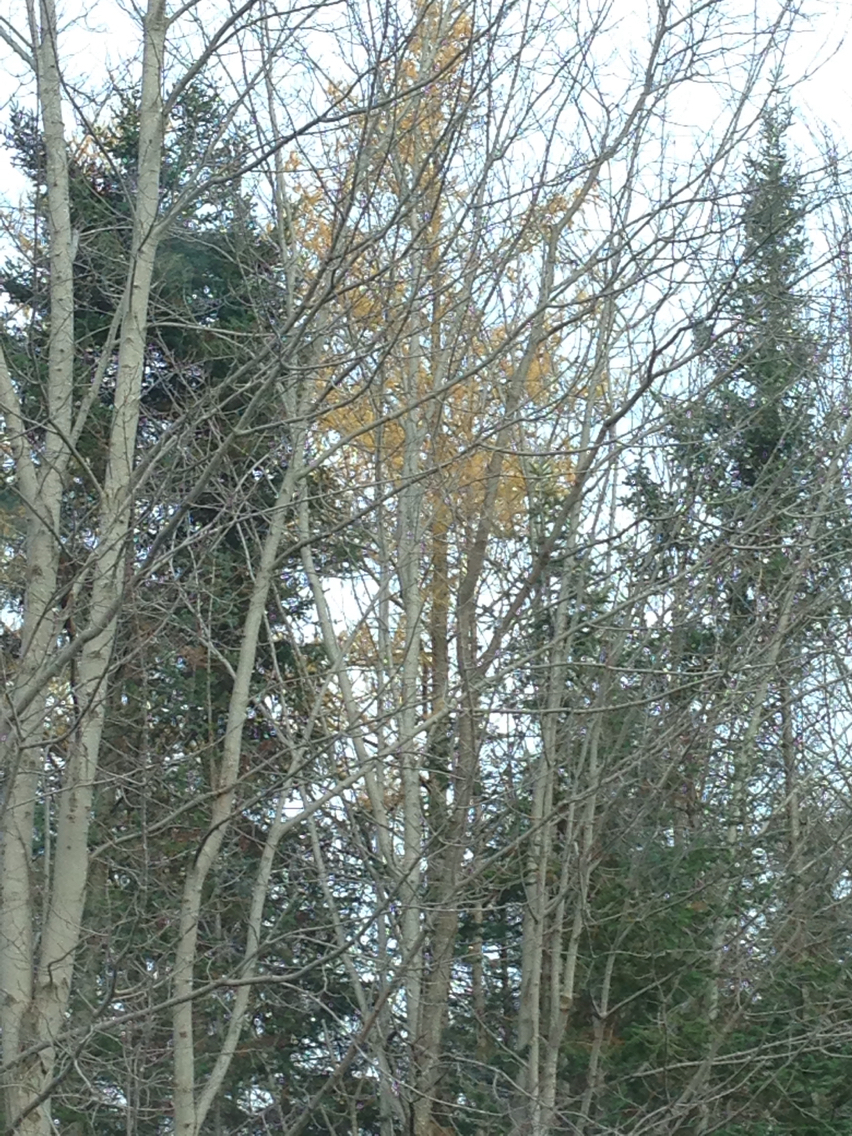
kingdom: Plantae
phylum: Tracheophyta
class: Pinopsida
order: Pinales
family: Pinaceae
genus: Larix
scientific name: Larix laricina
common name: American larch
